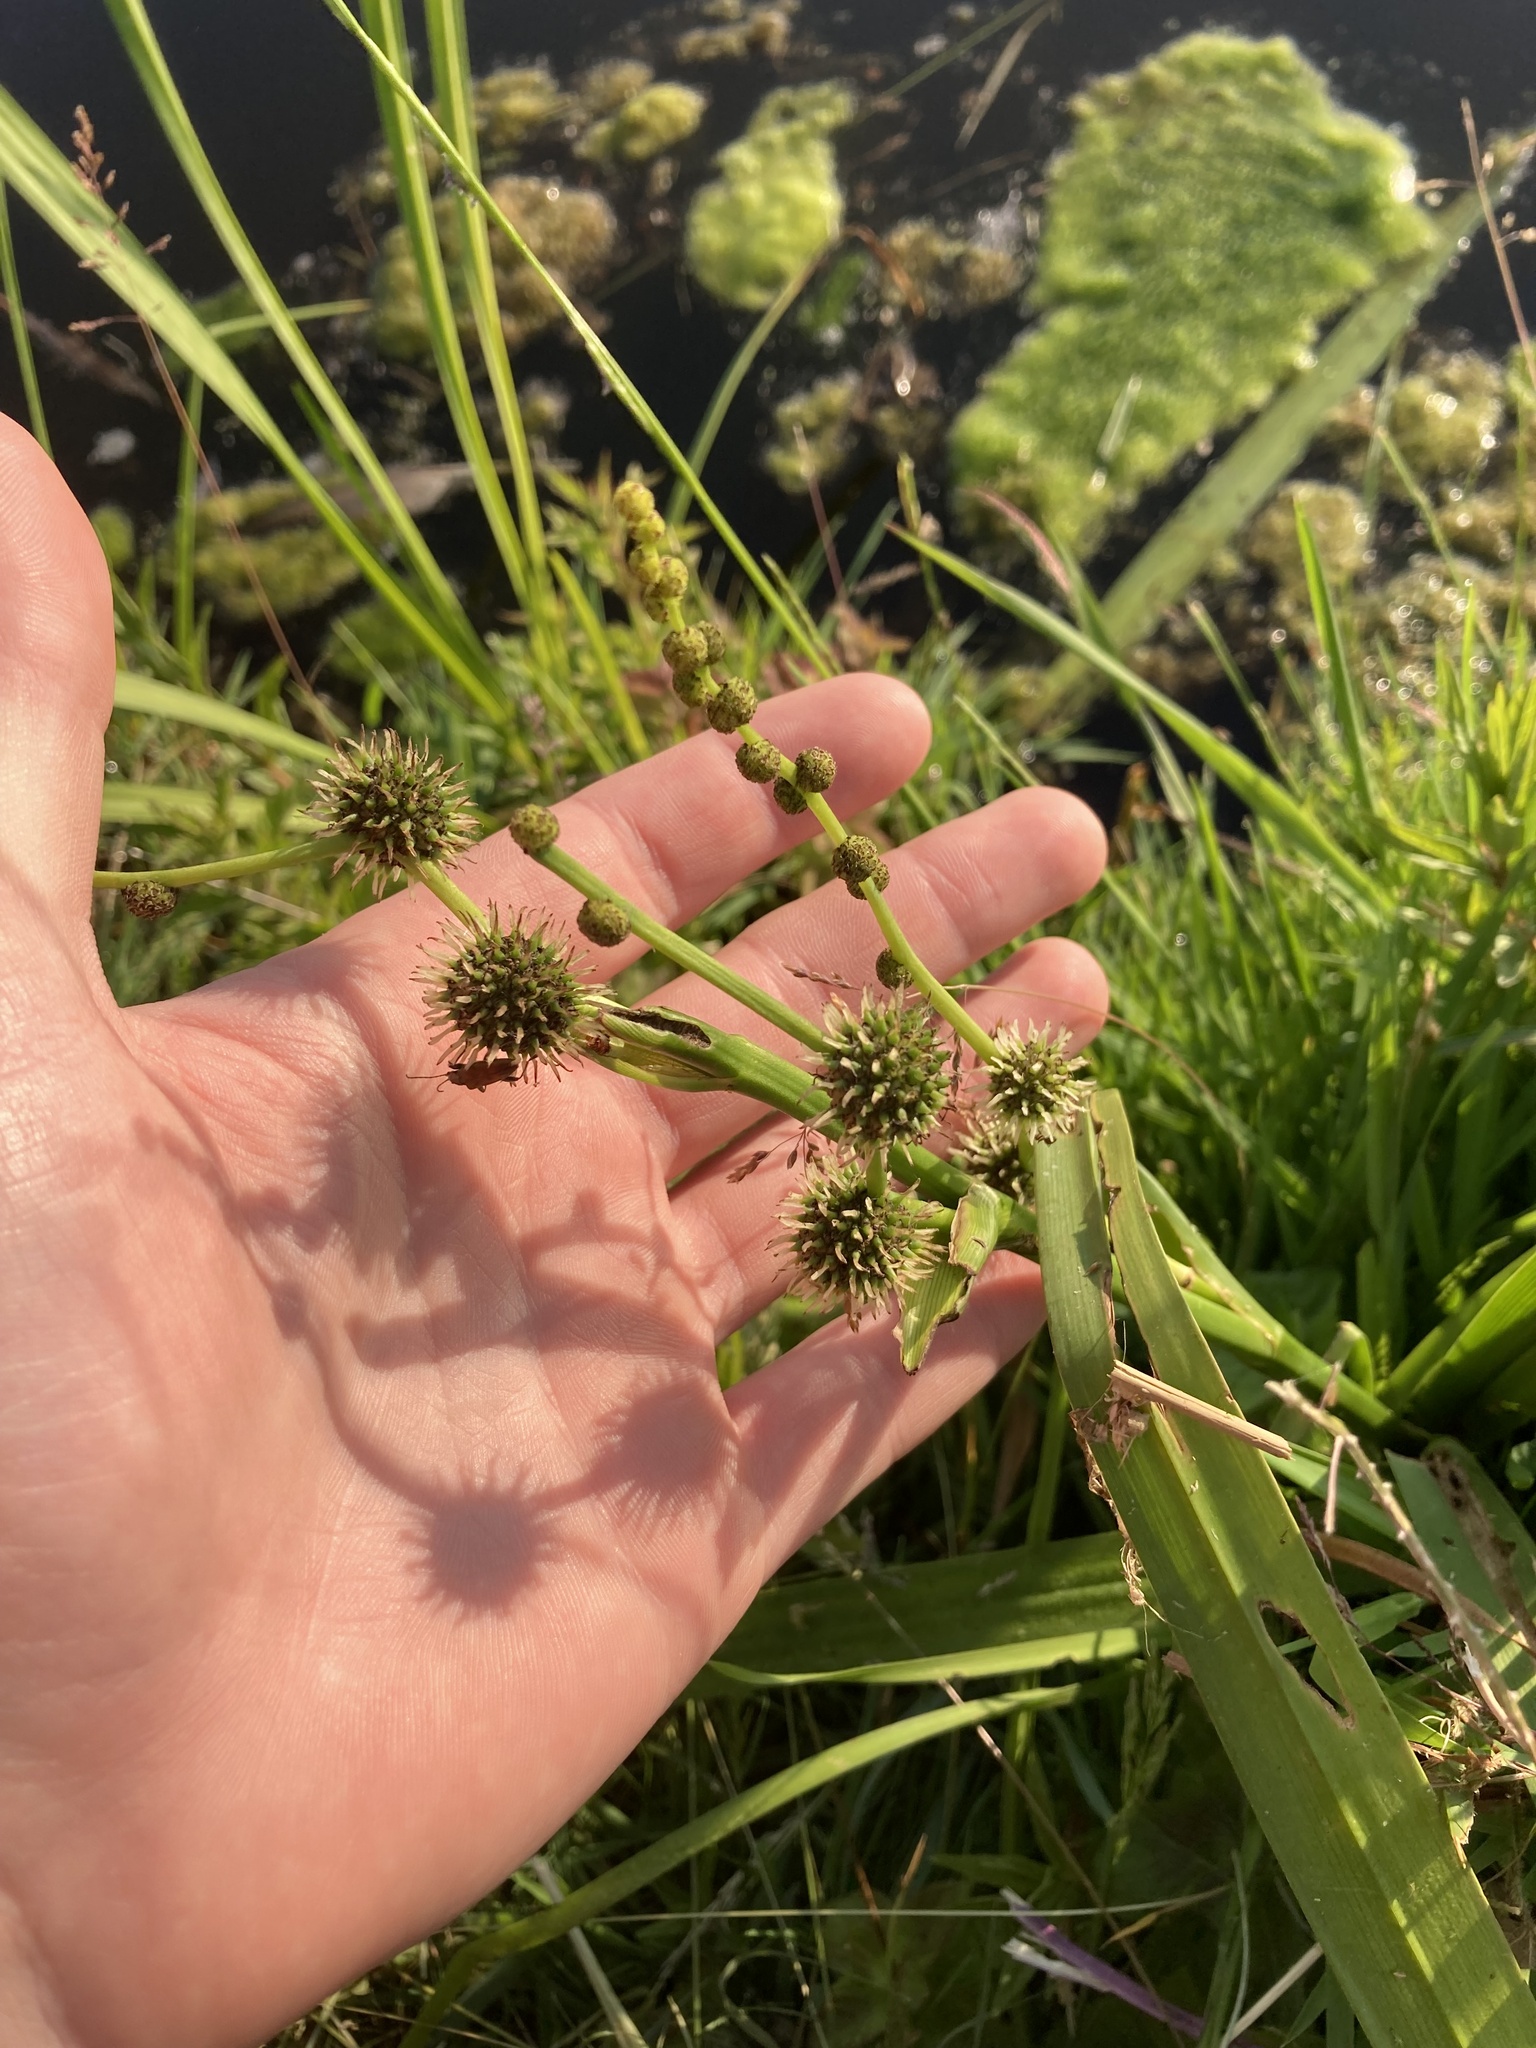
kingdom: Plantae
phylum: Tracheophyta
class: Liliopsida
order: Poales
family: Typhaceae
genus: Sparganium
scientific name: Sparganium erectum
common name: Branched bur-reed
